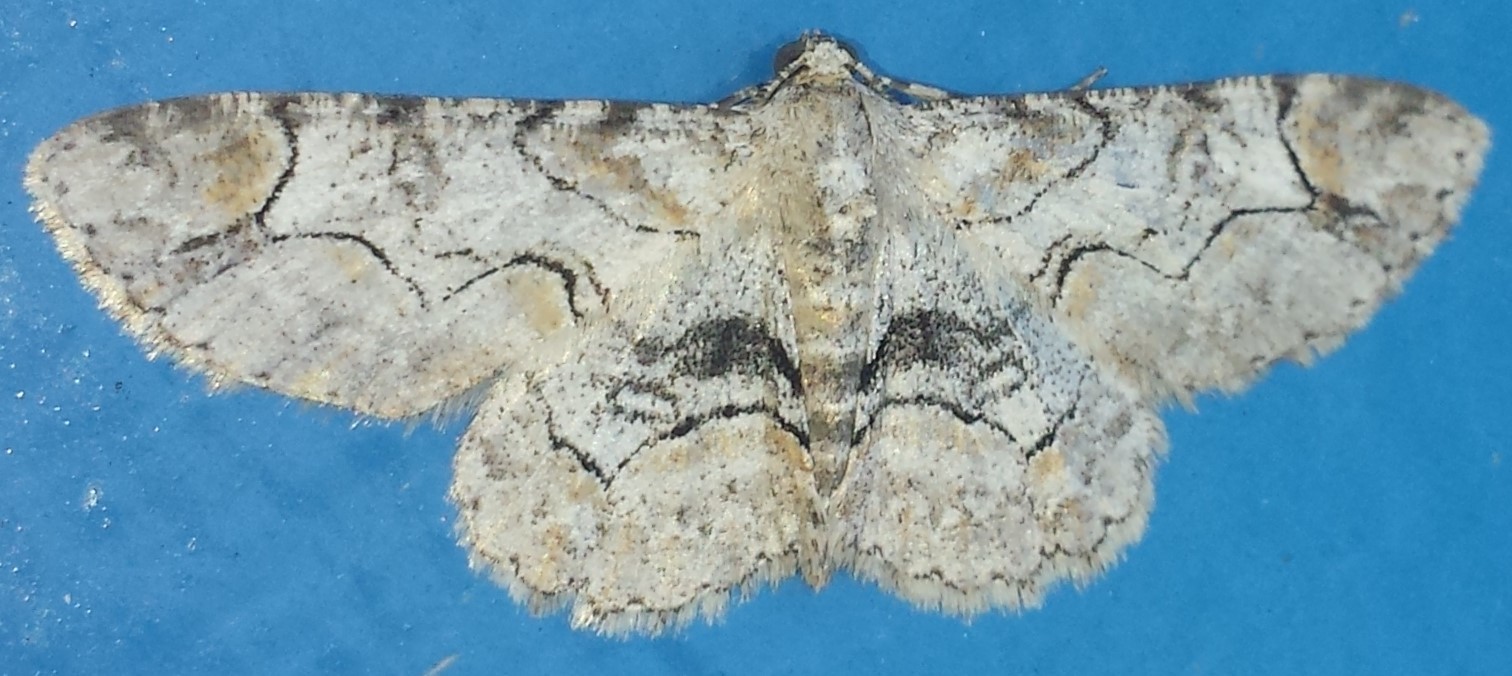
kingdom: Animalia
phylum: Arthropoda
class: Insecta
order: Lepidoptera
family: Geometridae
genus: Iridopsis
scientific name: Iridopsis larvaria
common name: Bent-line gray
